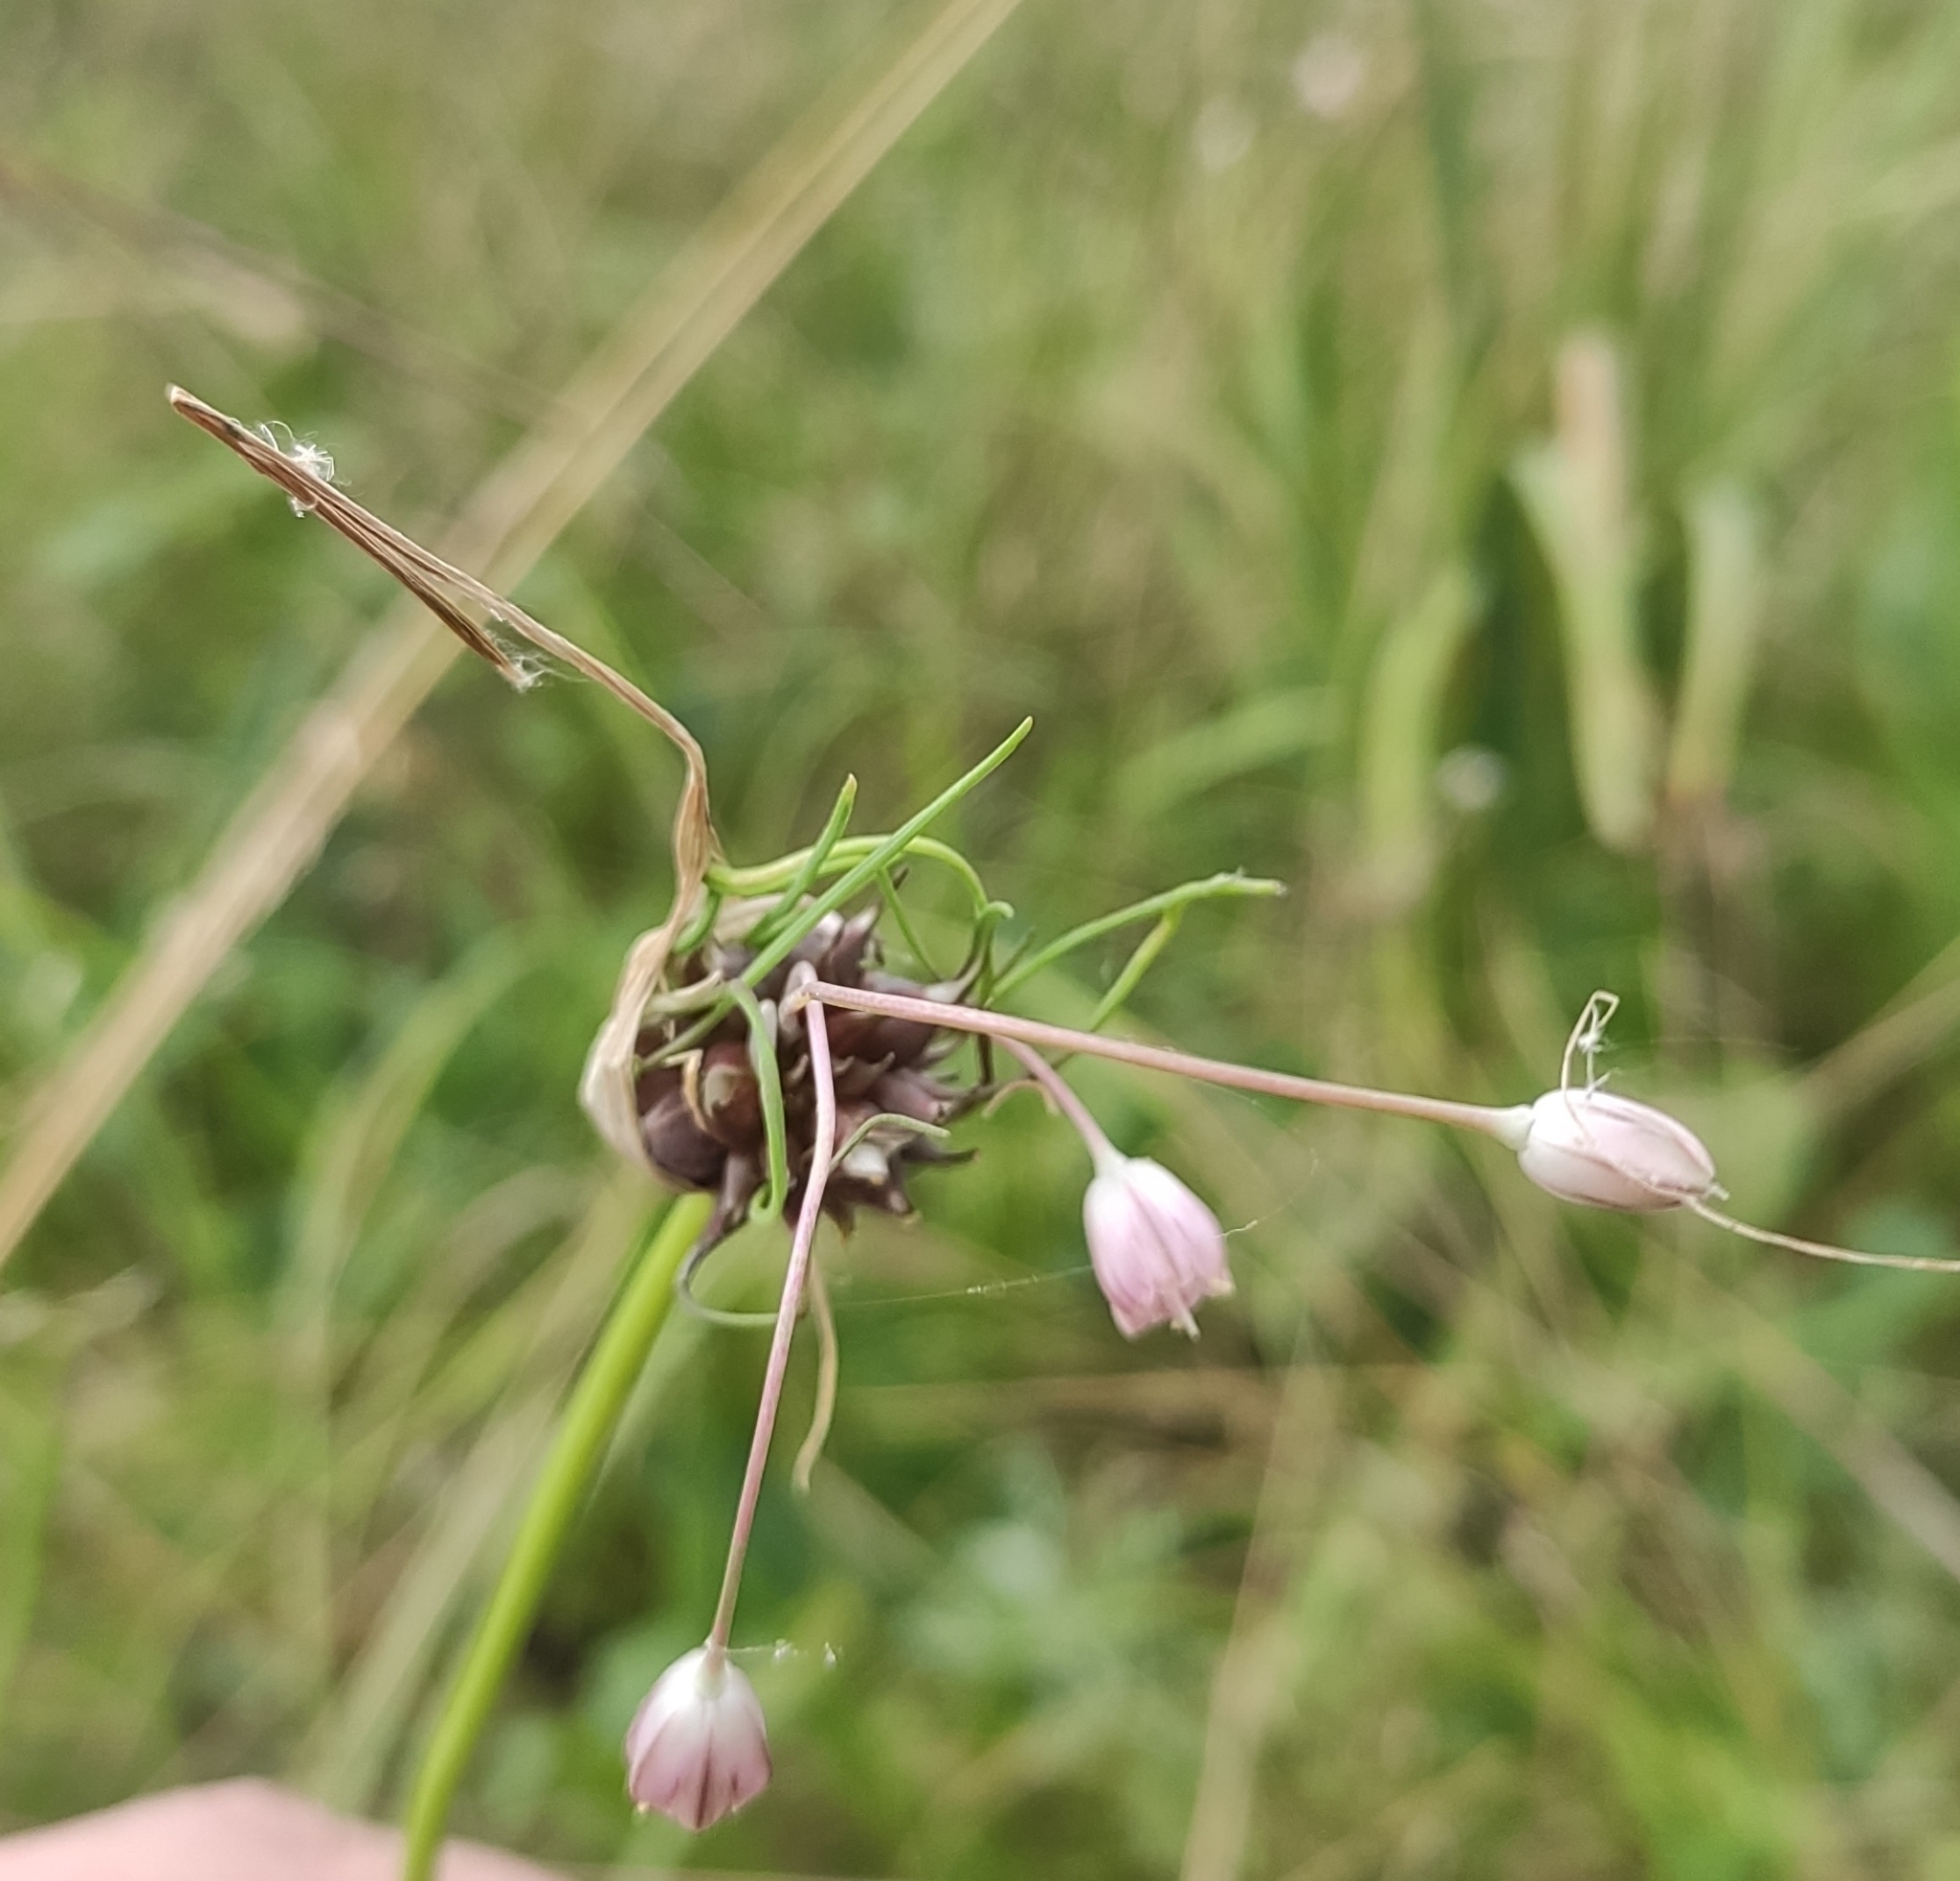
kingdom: Plantae
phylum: Tracheophyta
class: Liliopsida
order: Asparagales
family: Amaryllidaceae
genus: Allium
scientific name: Allium oleraceum
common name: Field garlic
